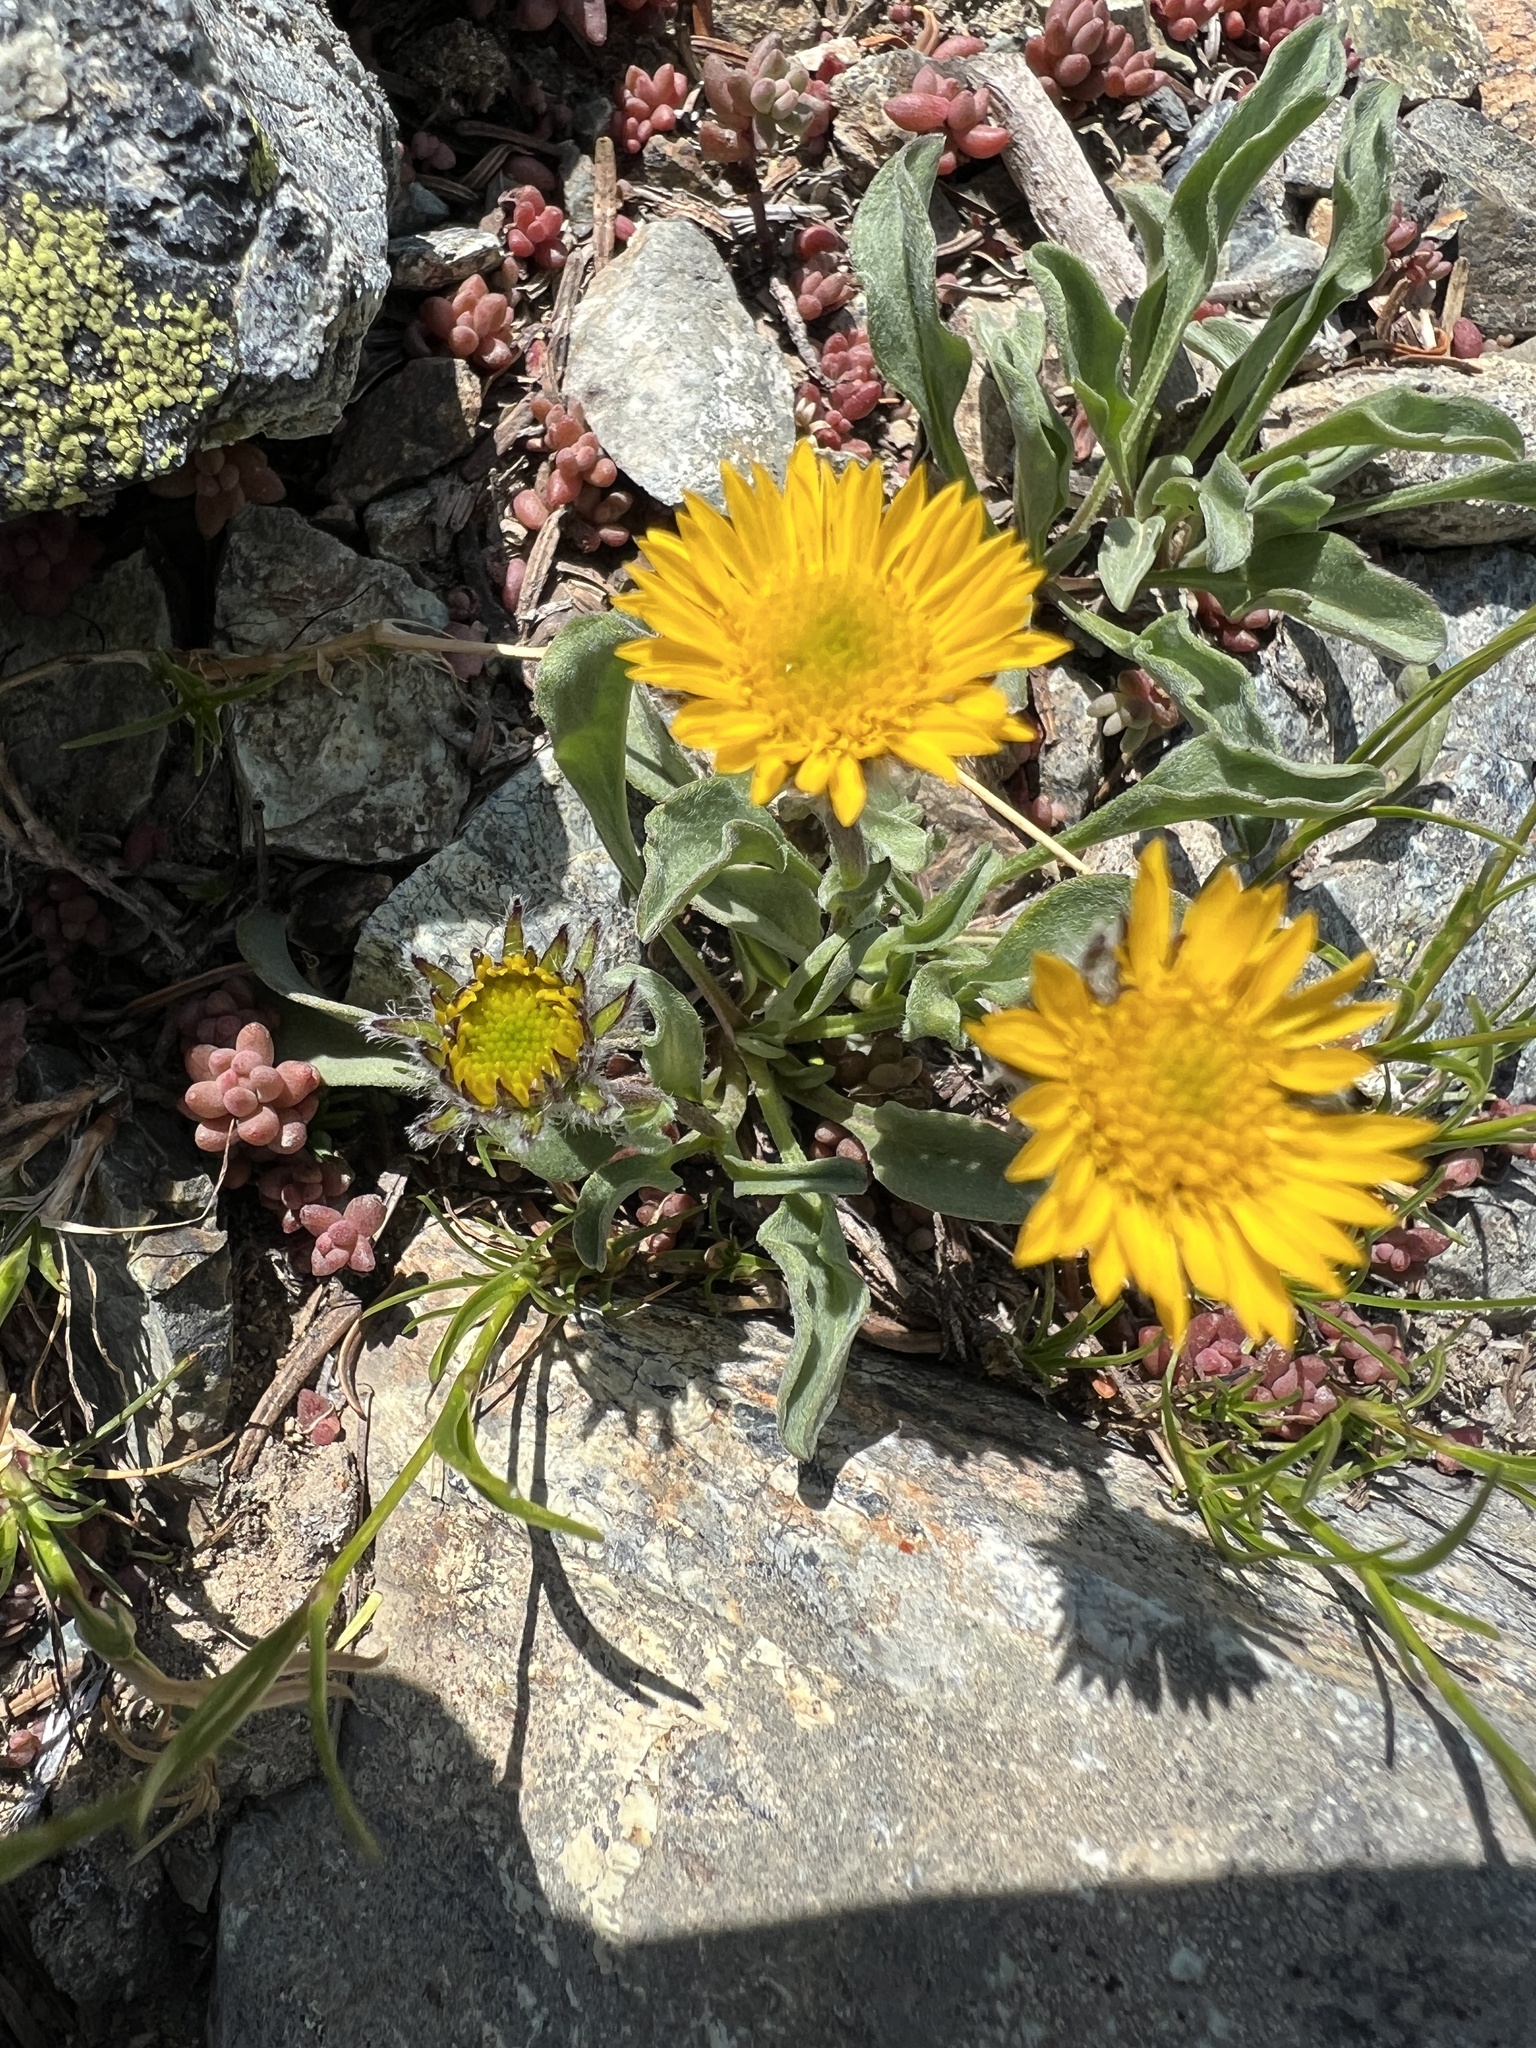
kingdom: Plantae
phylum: Tracheophyta
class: Magnoliopsida
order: Asterales
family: Asteraceae
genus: Erigeron
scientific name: Erigeron aureus
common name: Alpine yellow fleabane
